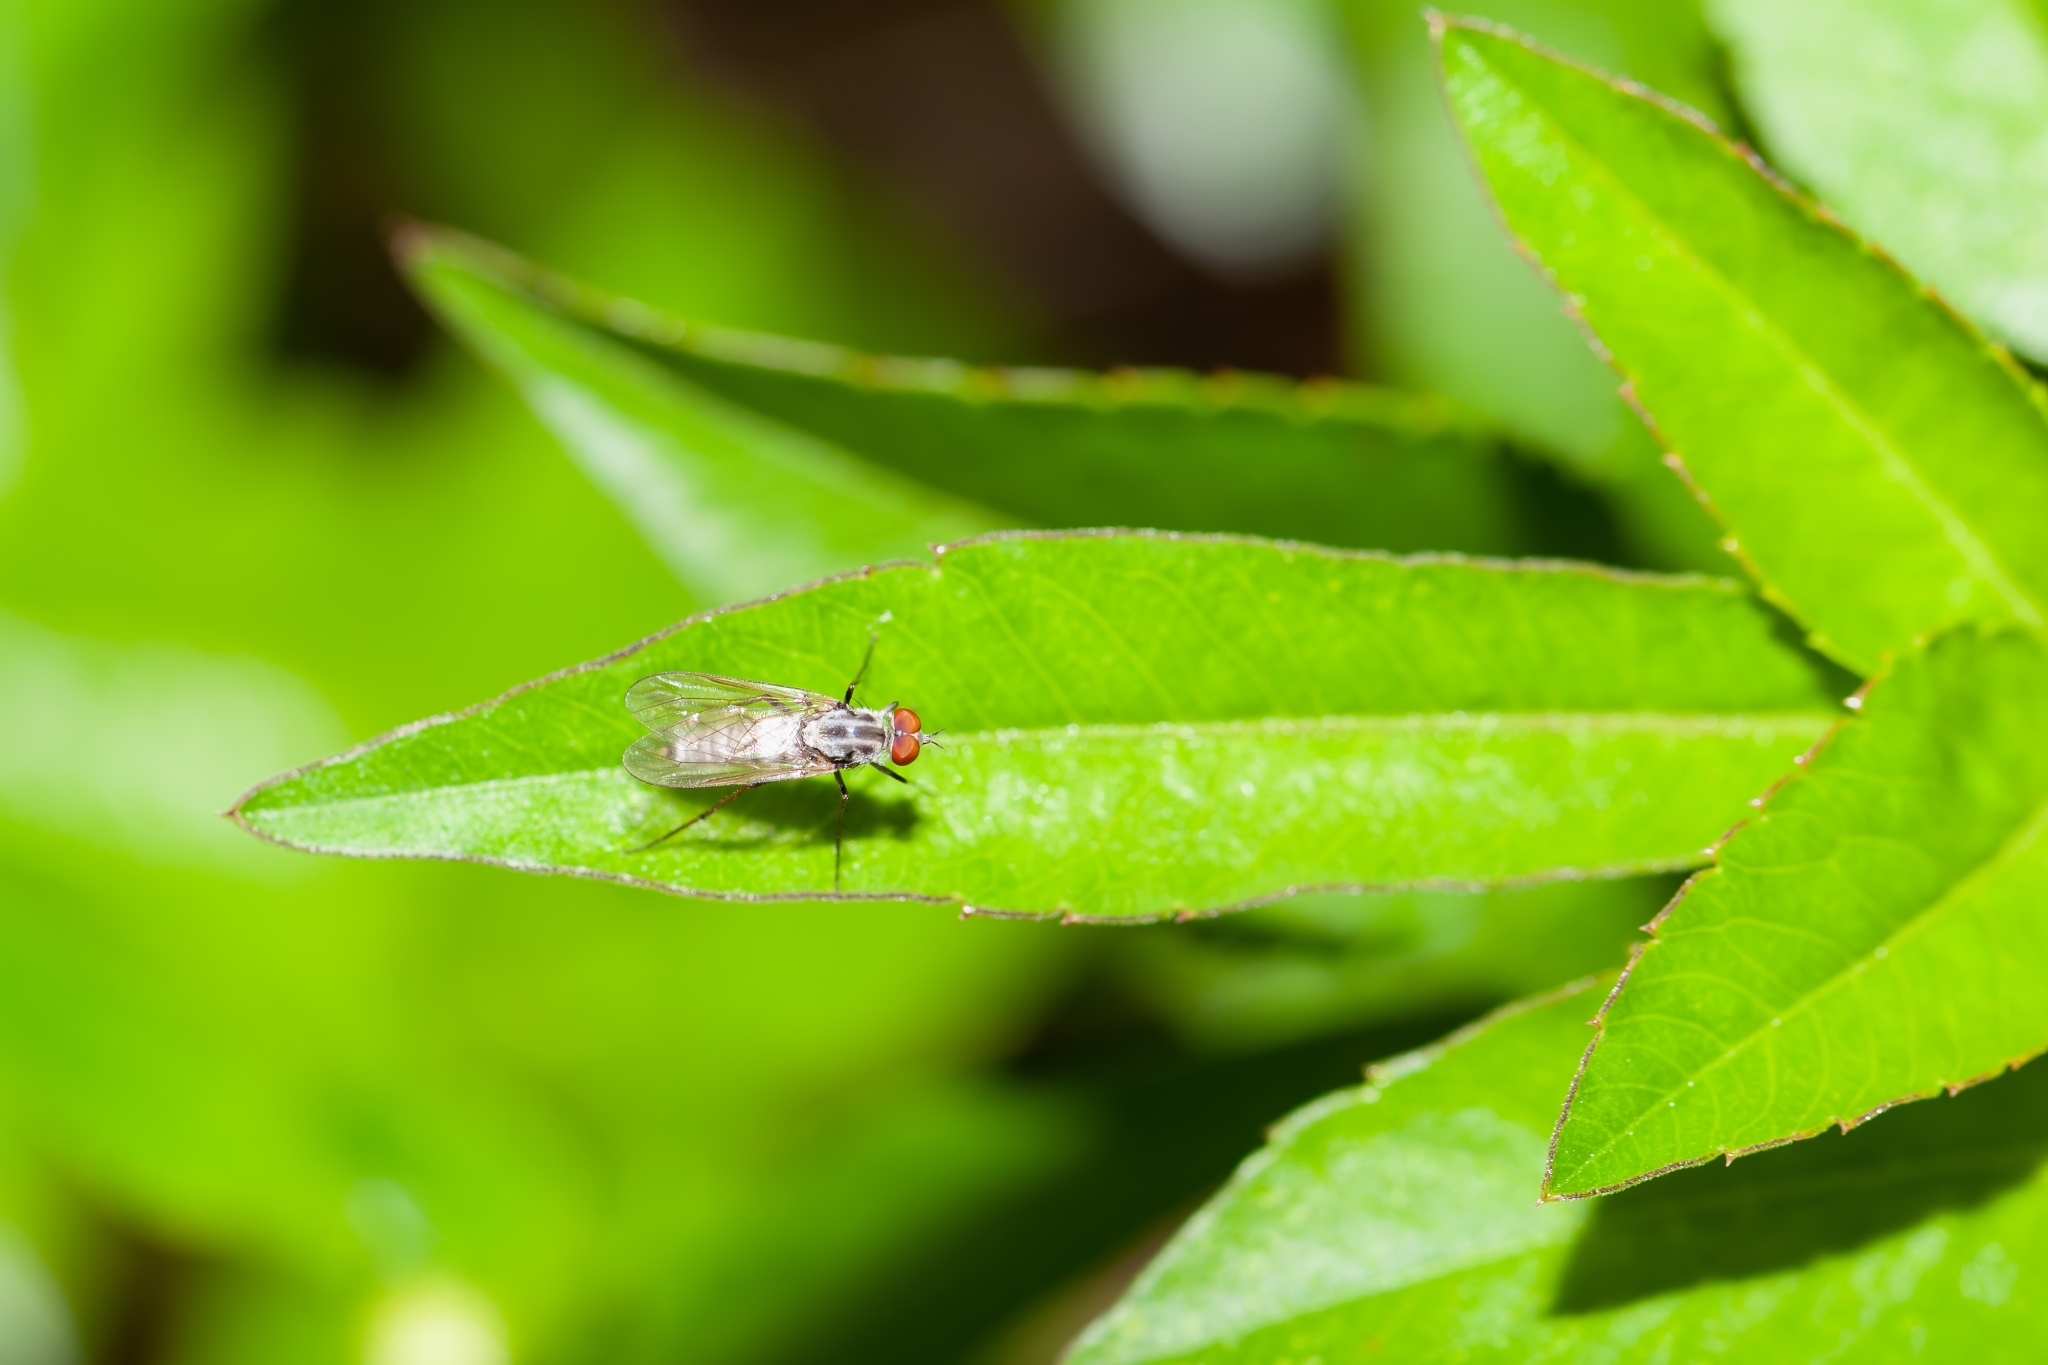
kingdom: Animalia
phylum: Arthropoda
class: Insecta
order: Diptera
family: Therevidae
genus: Penniverpa
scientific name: Penniverpa festina
